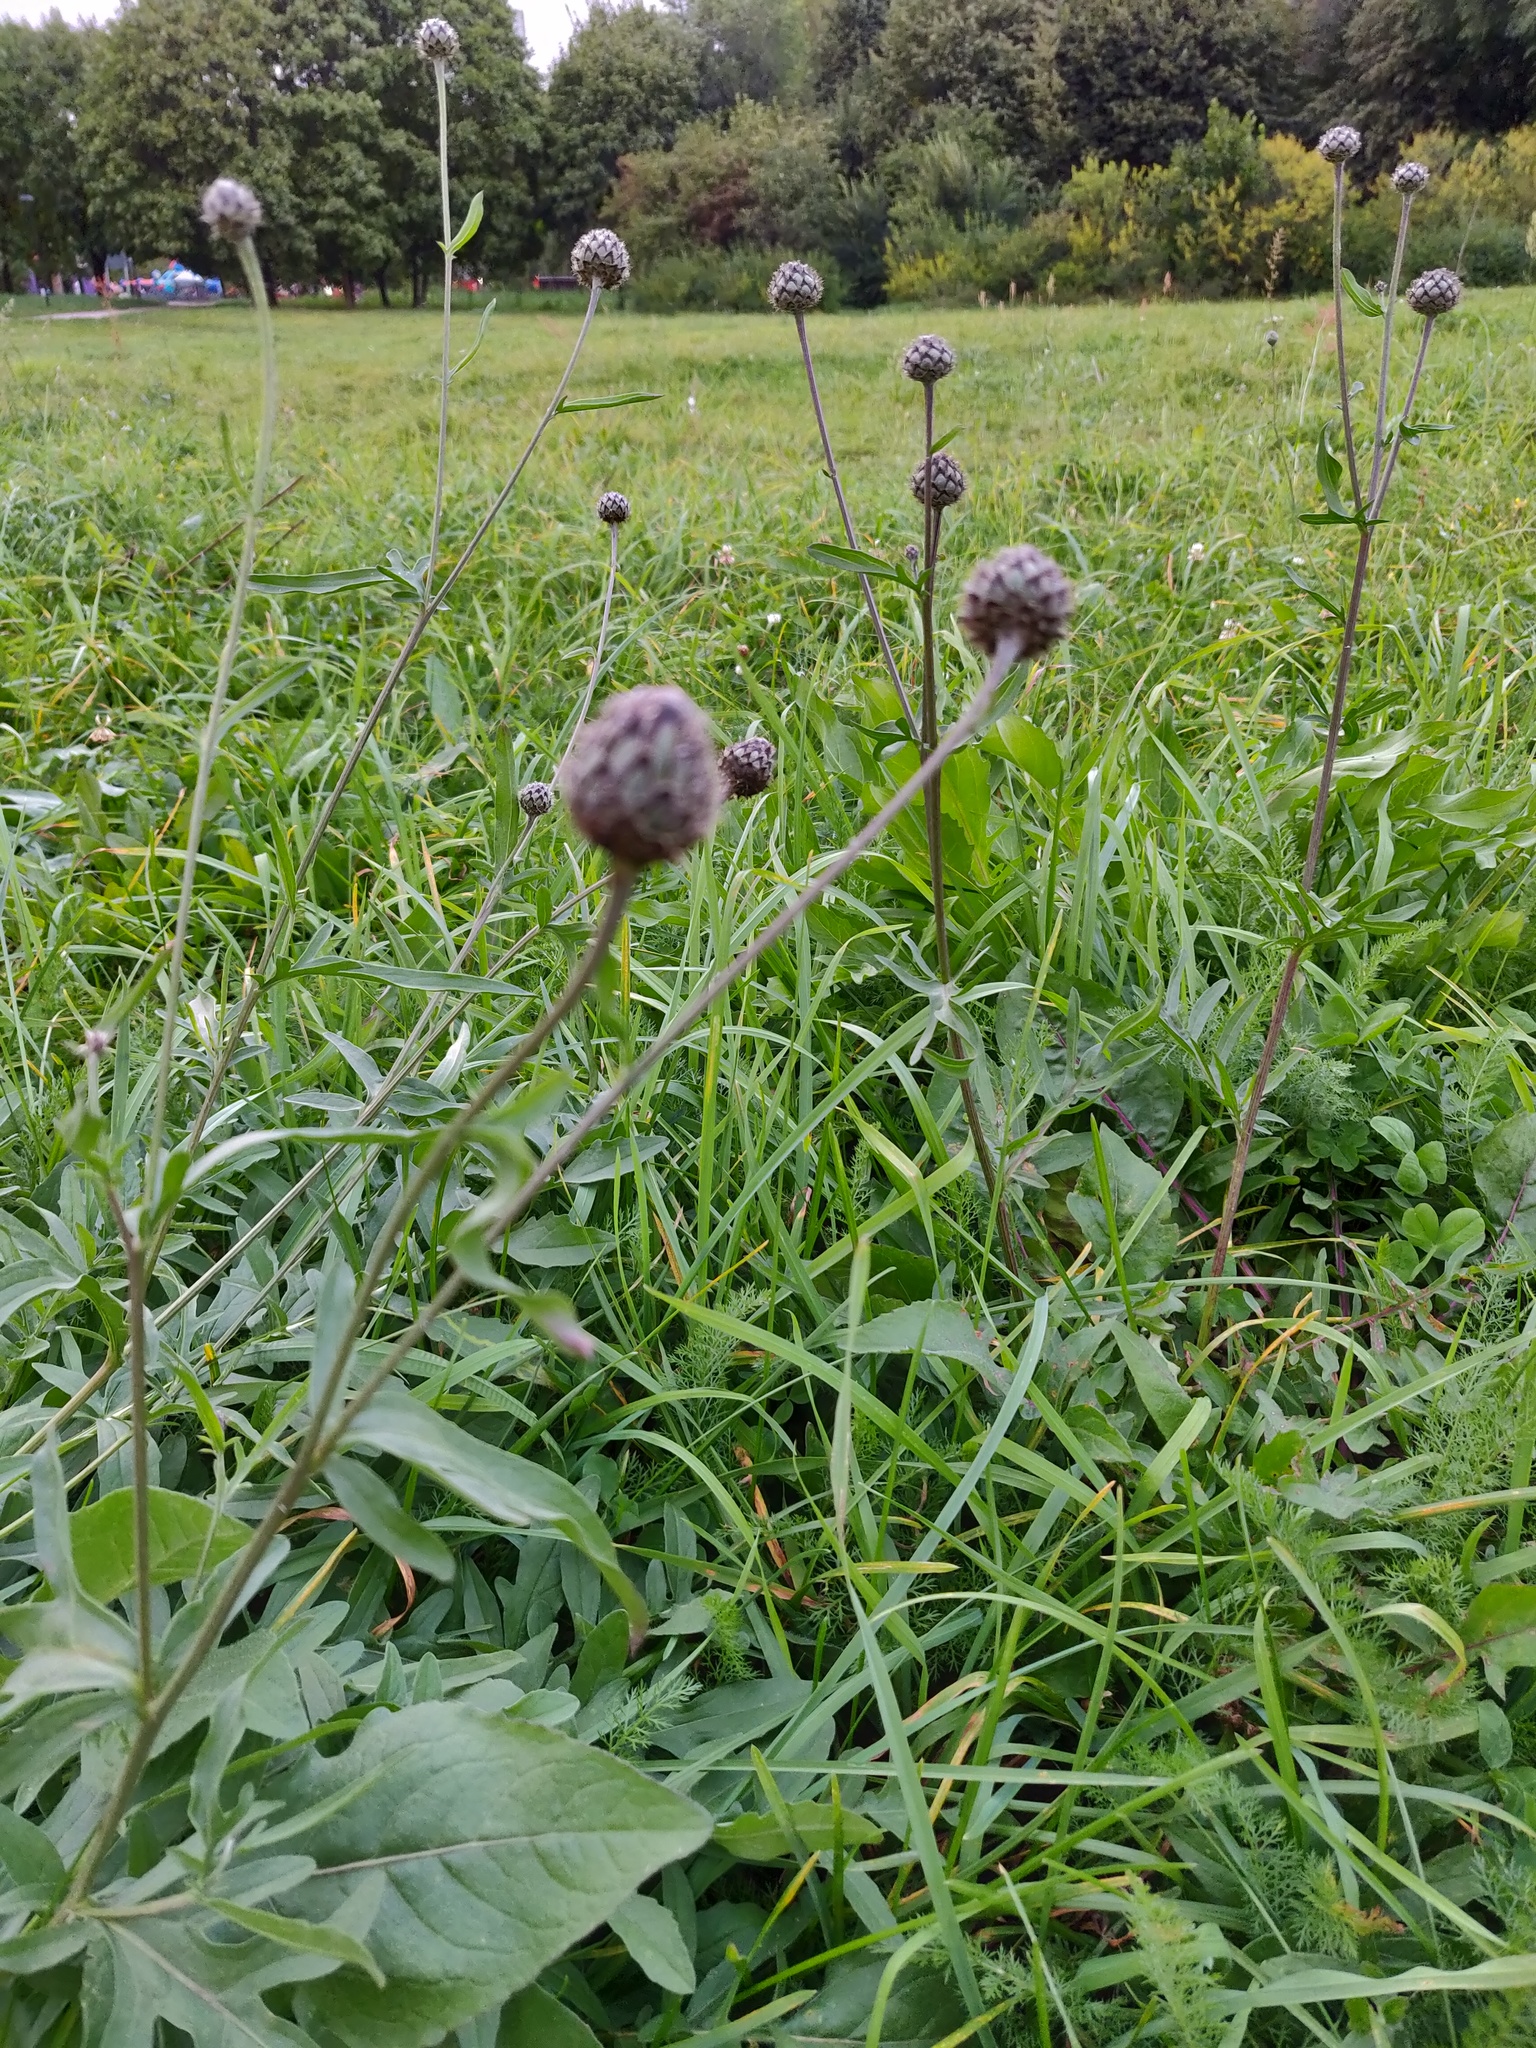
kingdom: Plantae
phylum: Tracheophyta
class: Magnoliopsida
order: Asterales
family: Asteraceae
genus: Centaurea
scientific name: Centaurea scabiosa
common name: Greater knapweed
